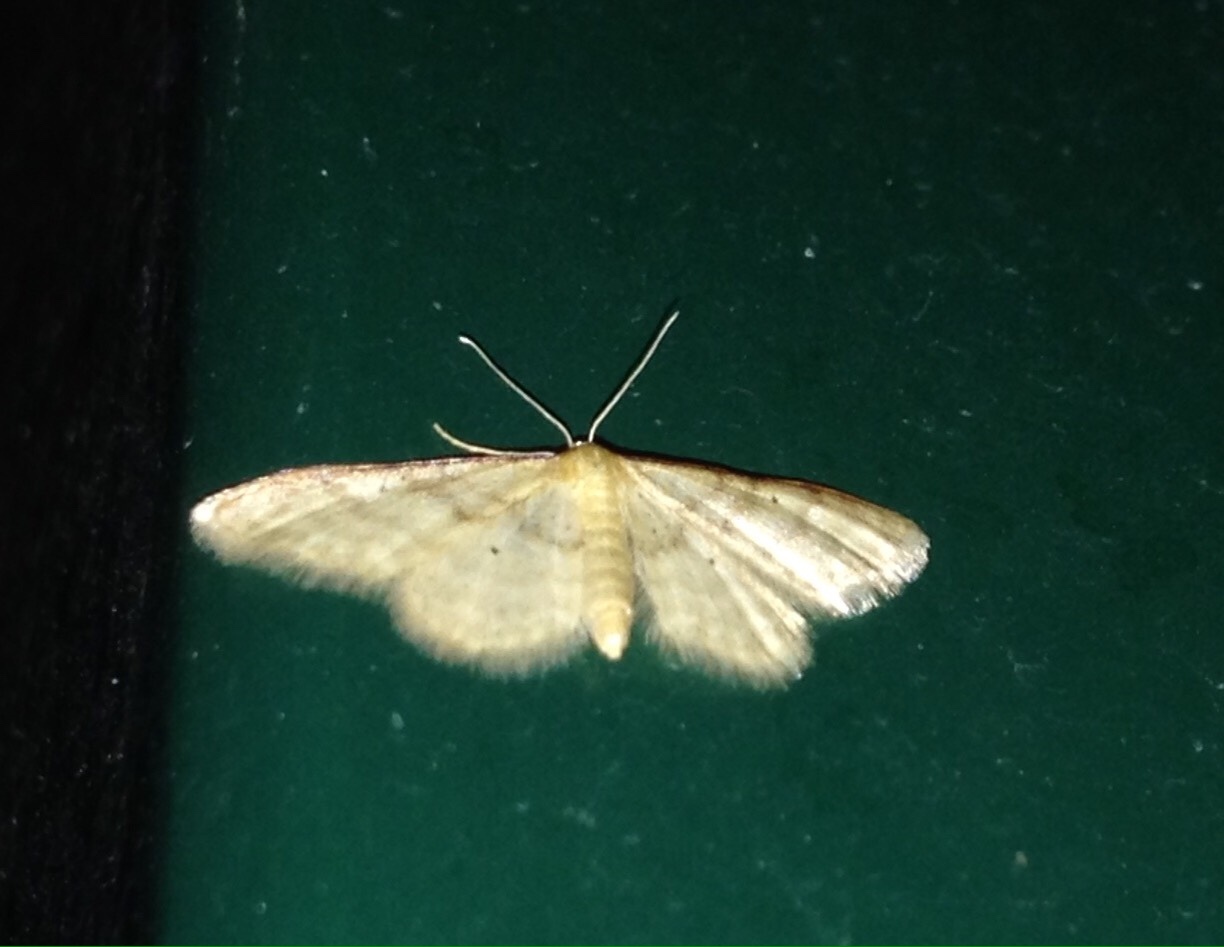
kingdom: Animalia
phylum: Arthropoda
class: Insecta
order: Lepidoptera
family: Geometridae
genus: Idaea
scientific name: Idaea humiliata
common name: Isle of wight wave
